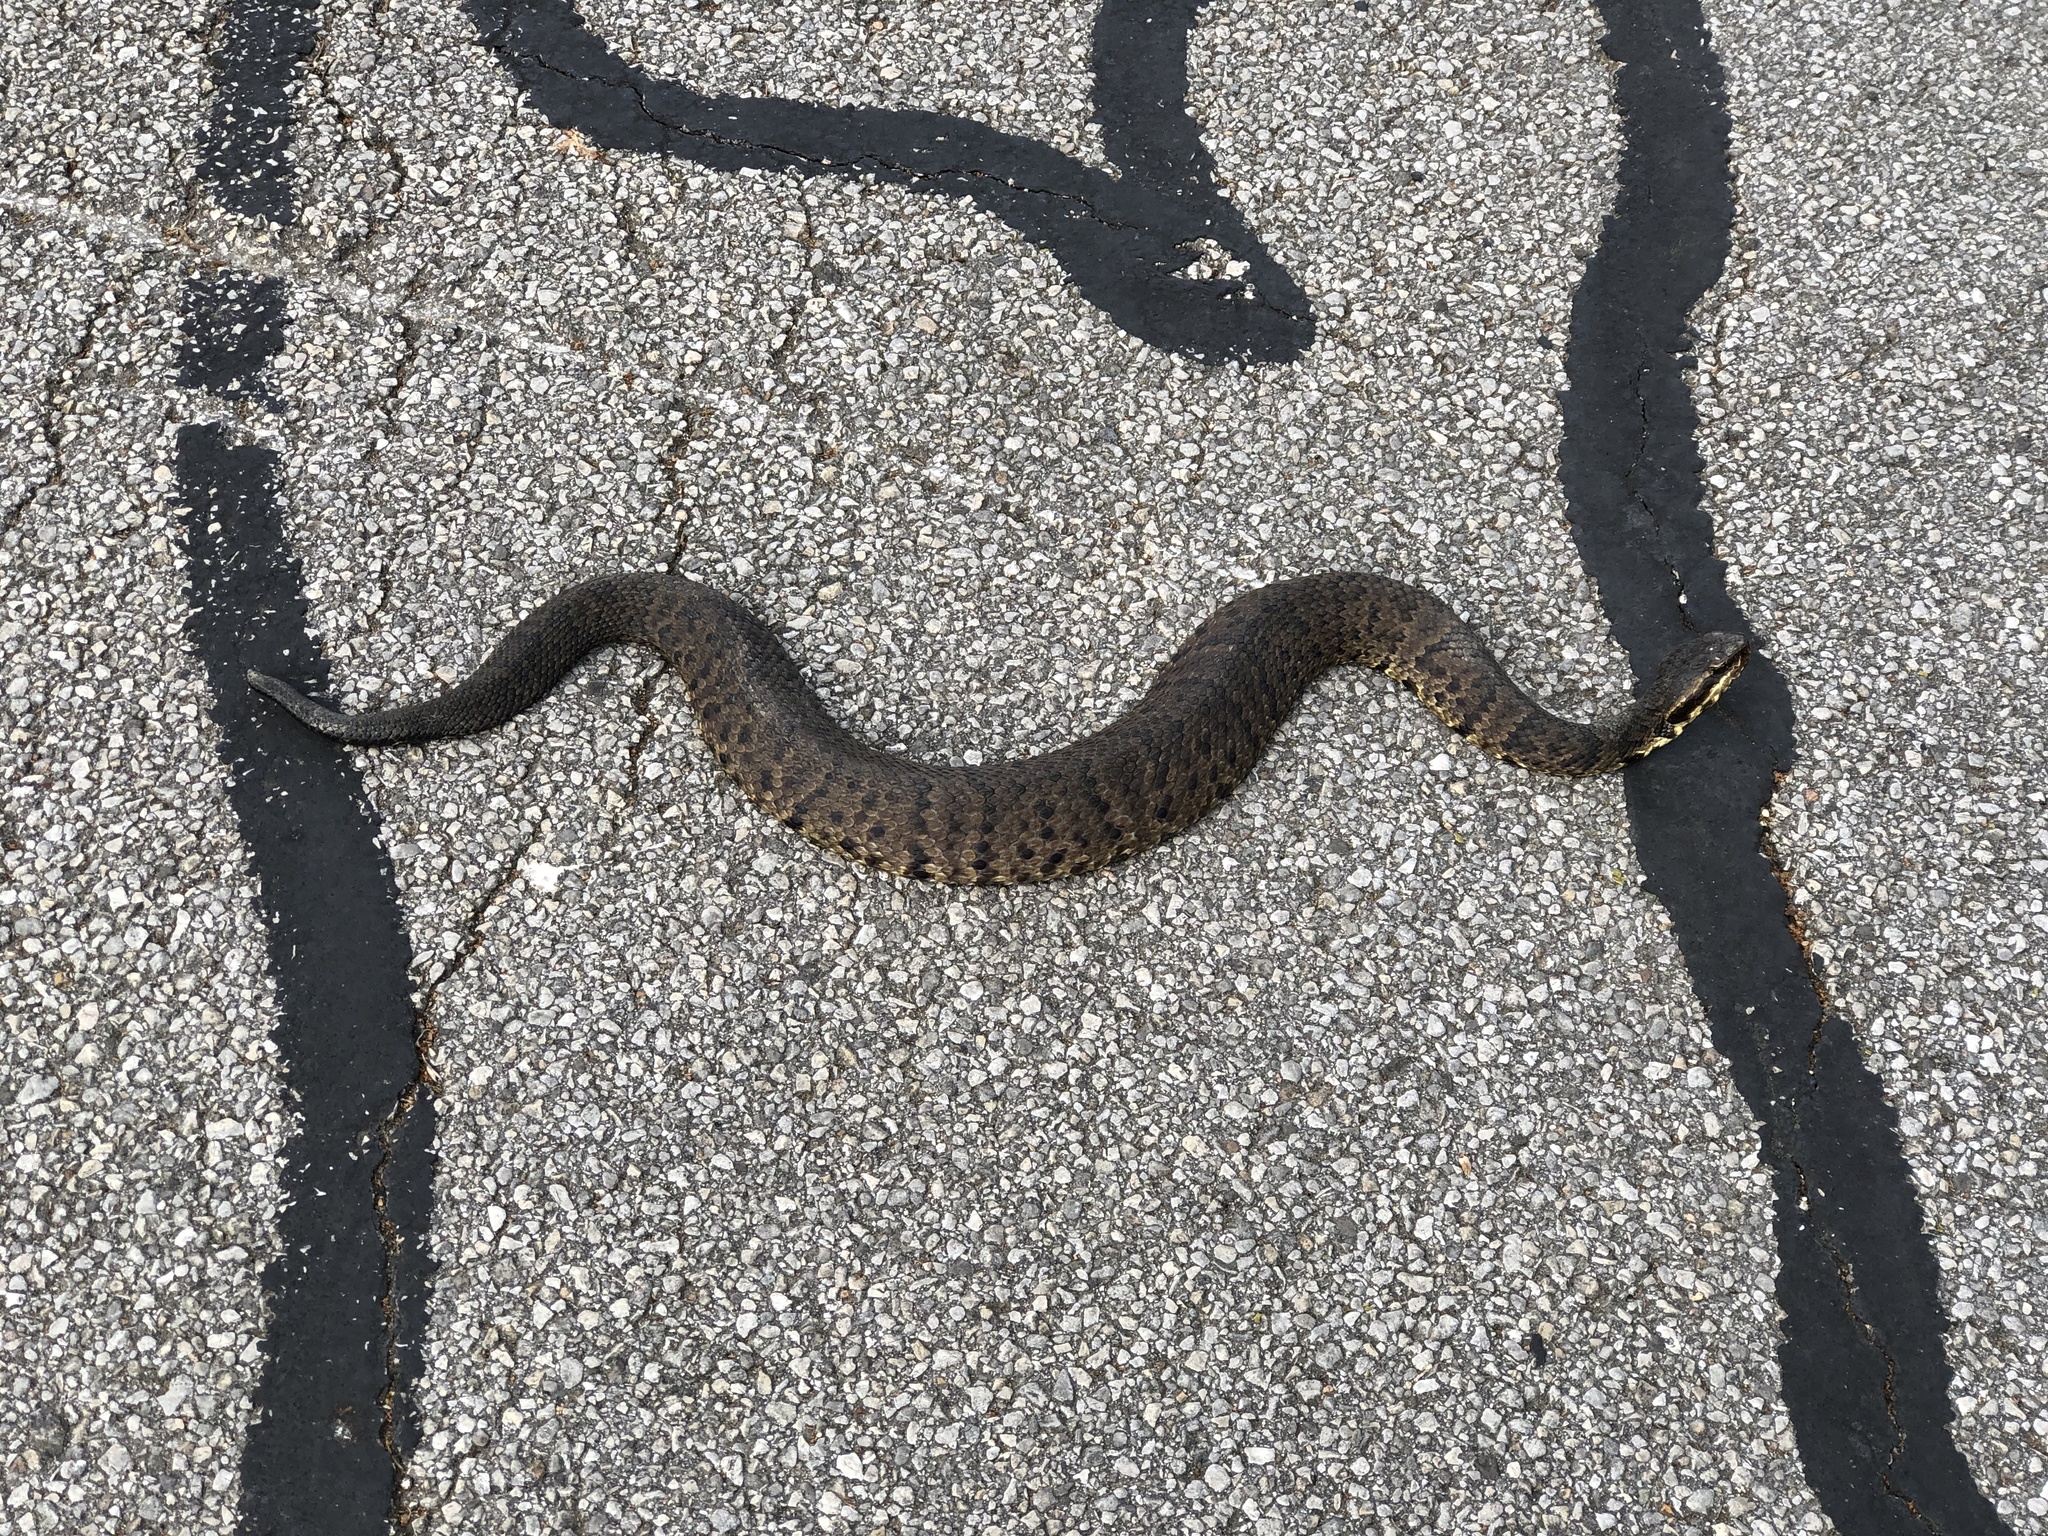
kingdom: Animalia
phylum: Chordata
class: Squamata
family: Viperidae
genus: Agkistrodon
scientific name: Agkistrodon piscivorus
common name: Cottonmouth
